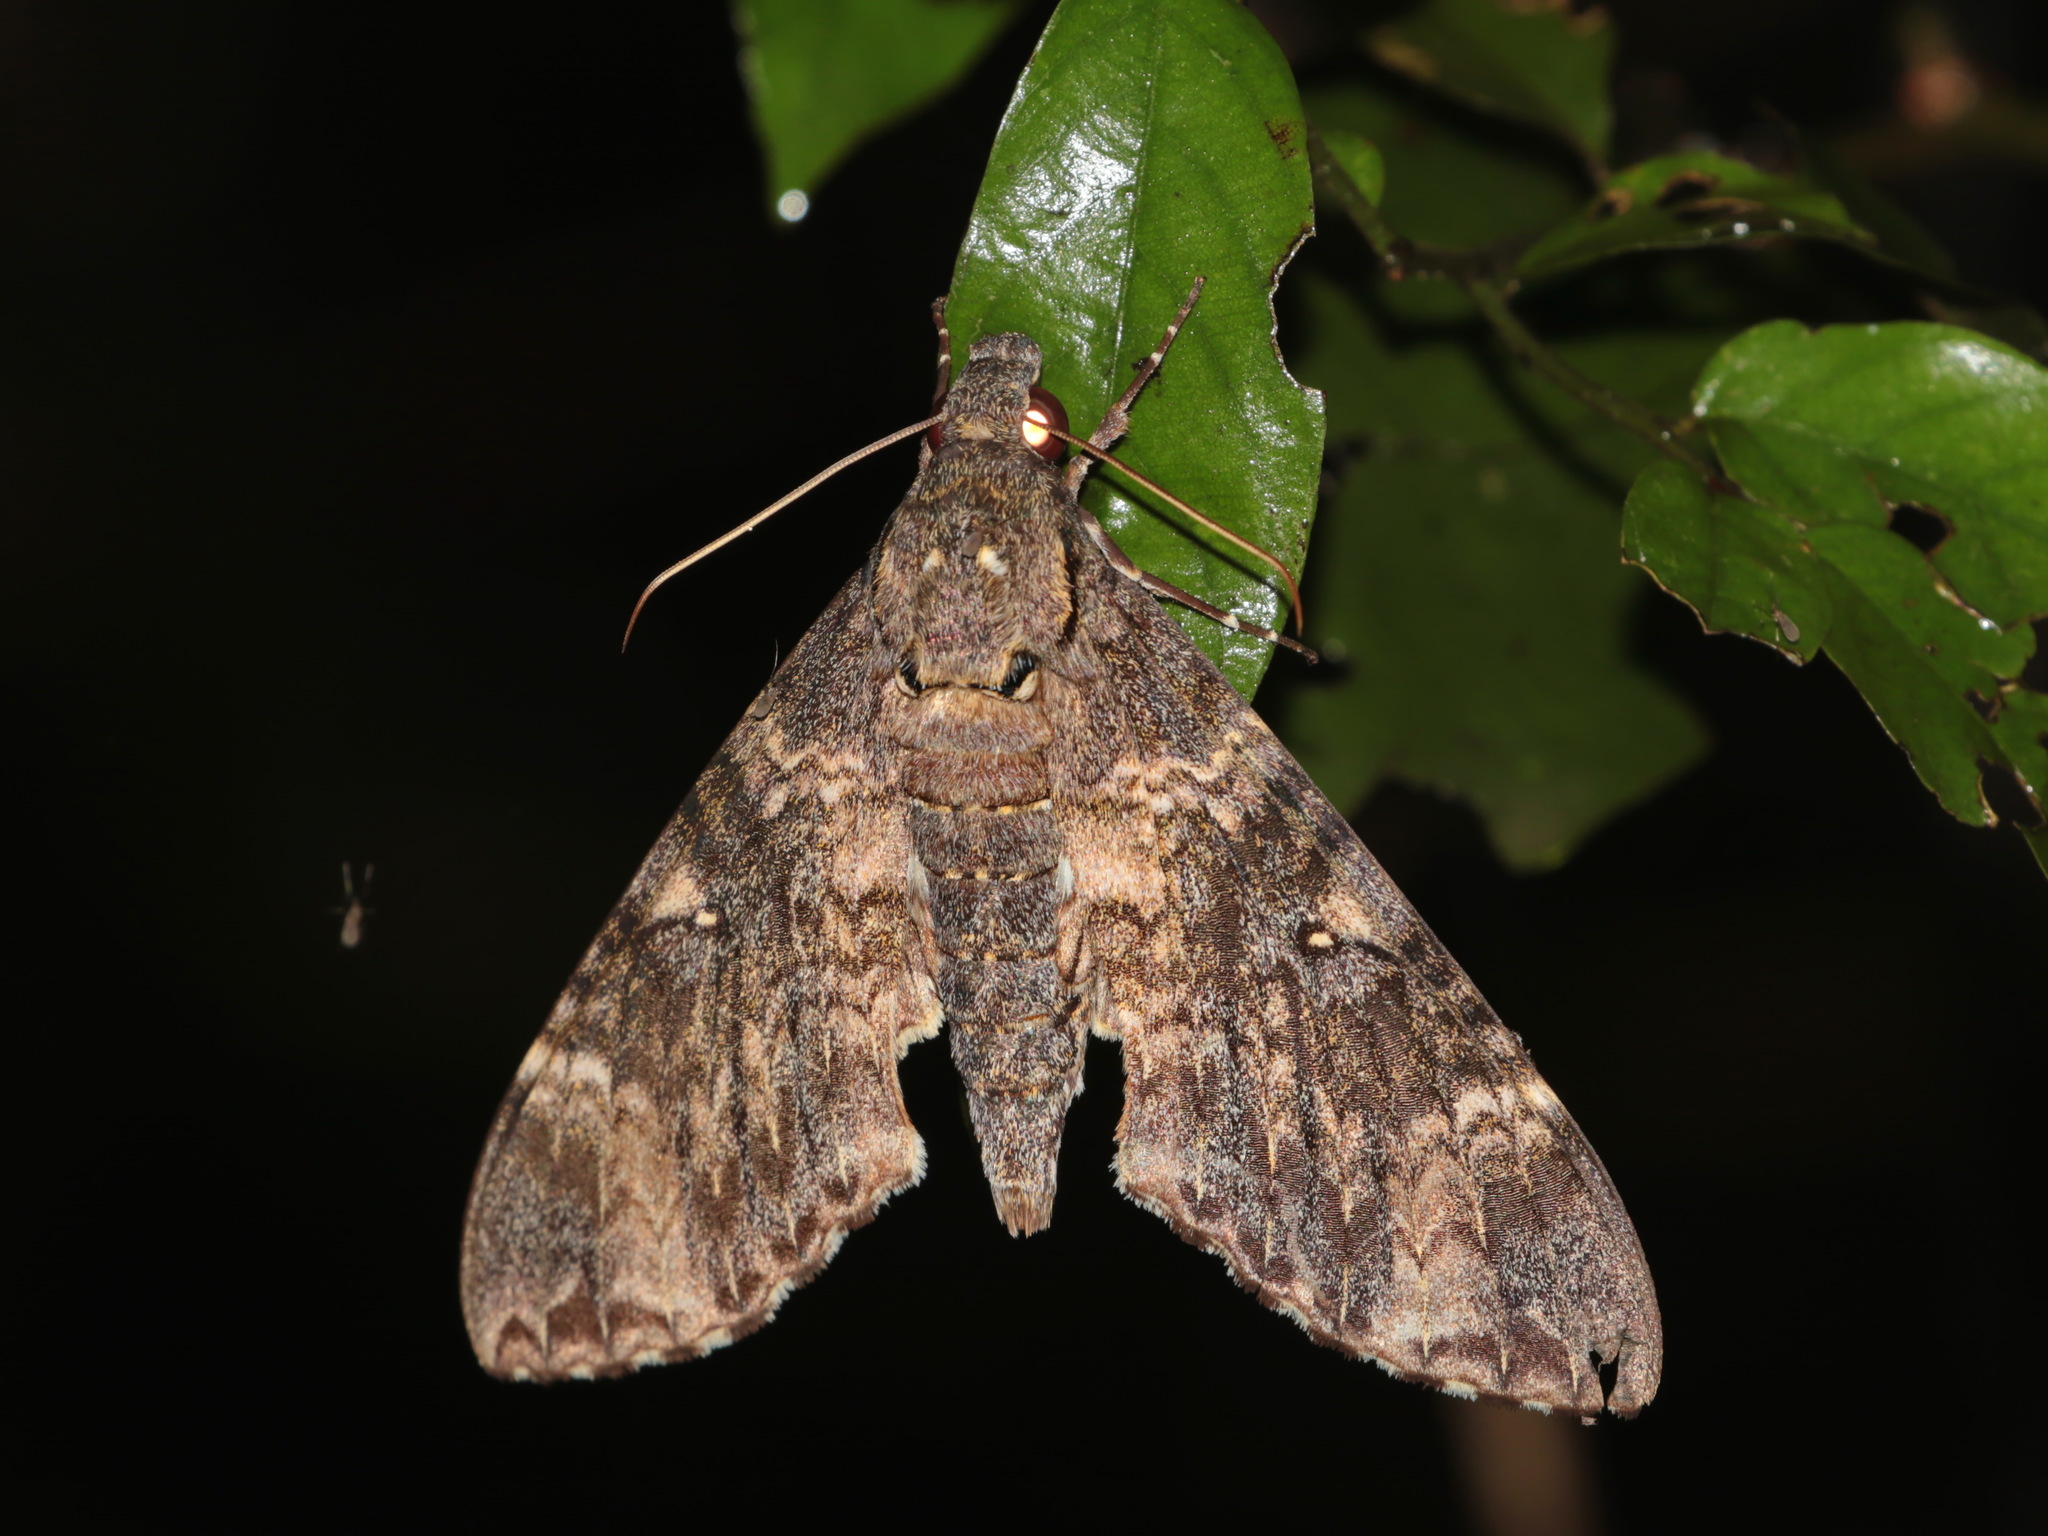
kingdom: Animalia
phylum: Arthropoda
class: Insecta
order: Lepidoptera
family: Sphingidae
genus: Meganoton
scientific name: Meganoton nyctiphanes
